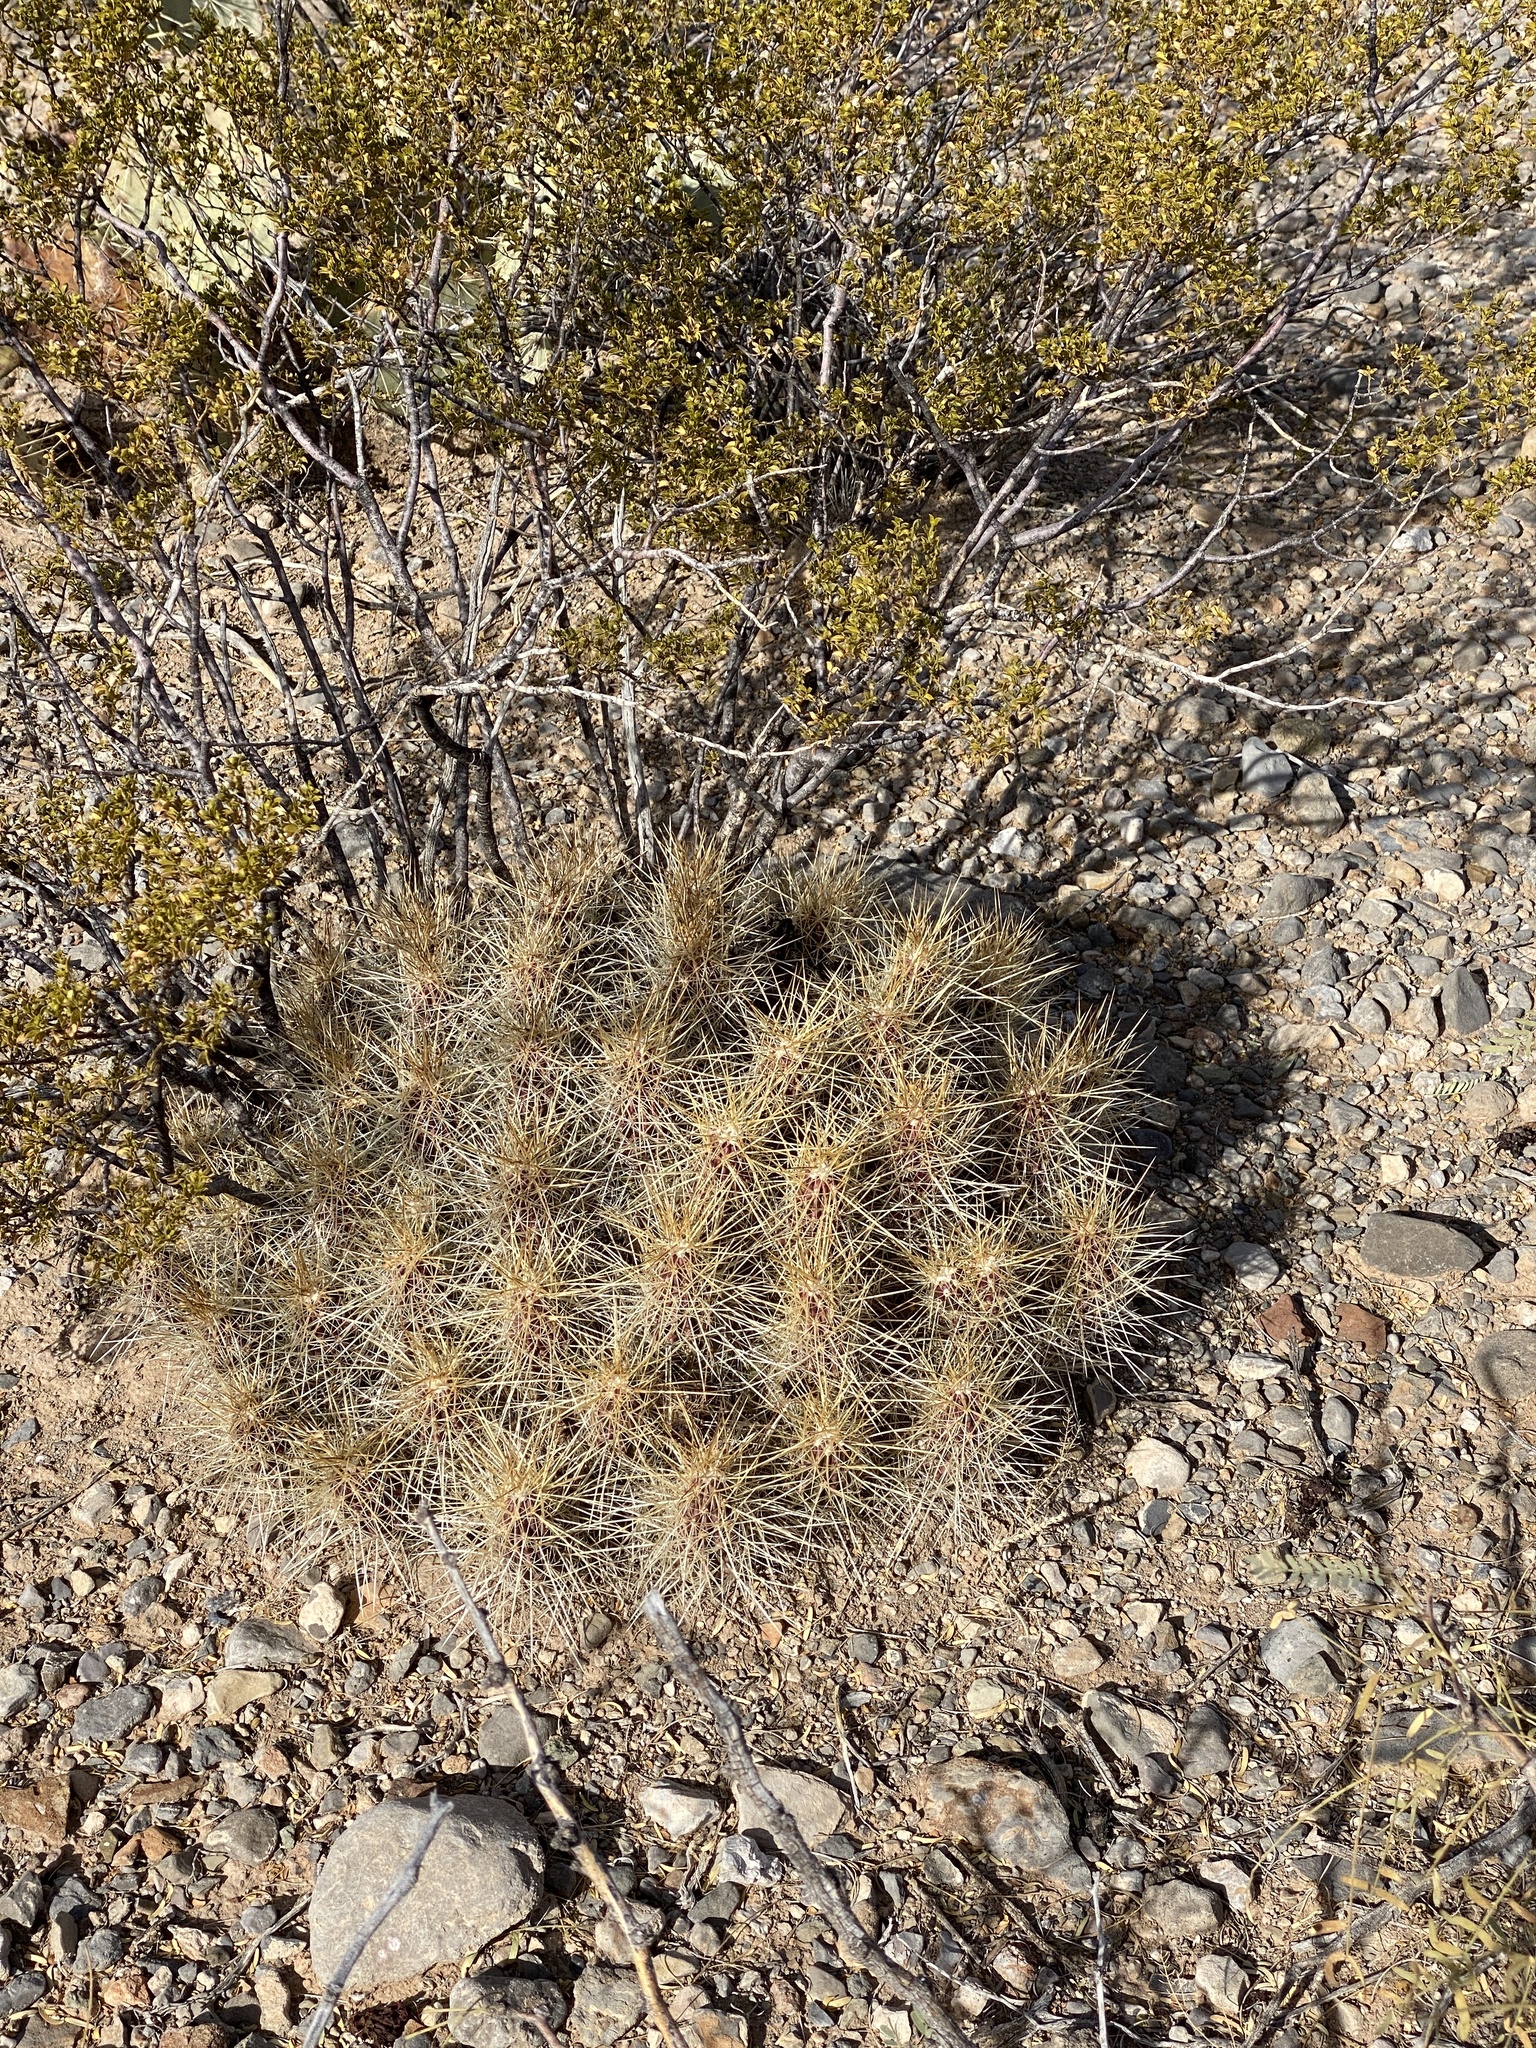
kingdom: Plantae
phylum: Tracheophyta
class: Magnoliopsida
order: Caryophyllales
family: Cactaceae
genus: Echinocereus
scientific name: Echinocereus stramineus
